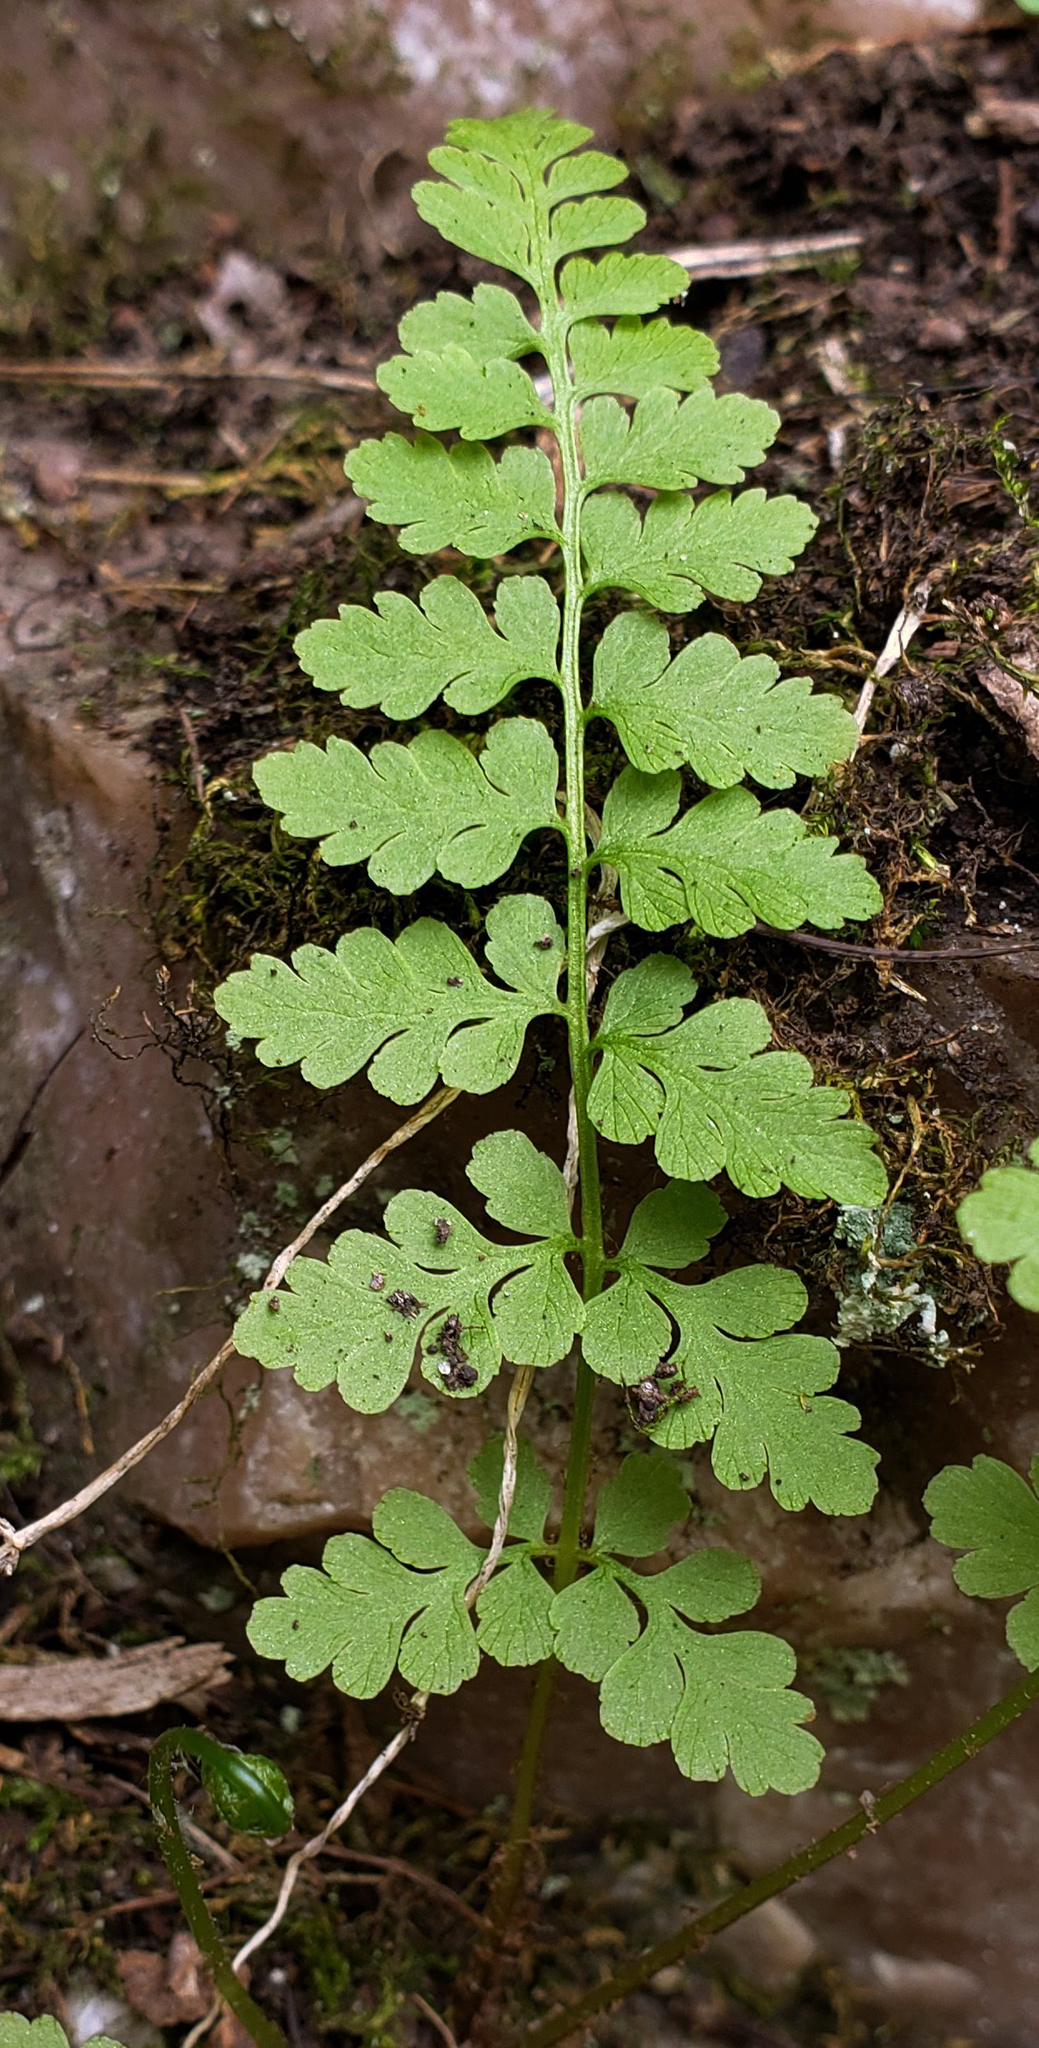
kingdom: Plantae
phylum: Tracheophyta
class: Polypodiopsida
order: Polypodiales
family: Cystopteridaceae
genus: Cystopteris
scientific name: Cystopteris fragilis
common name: Brittle bladder fern
